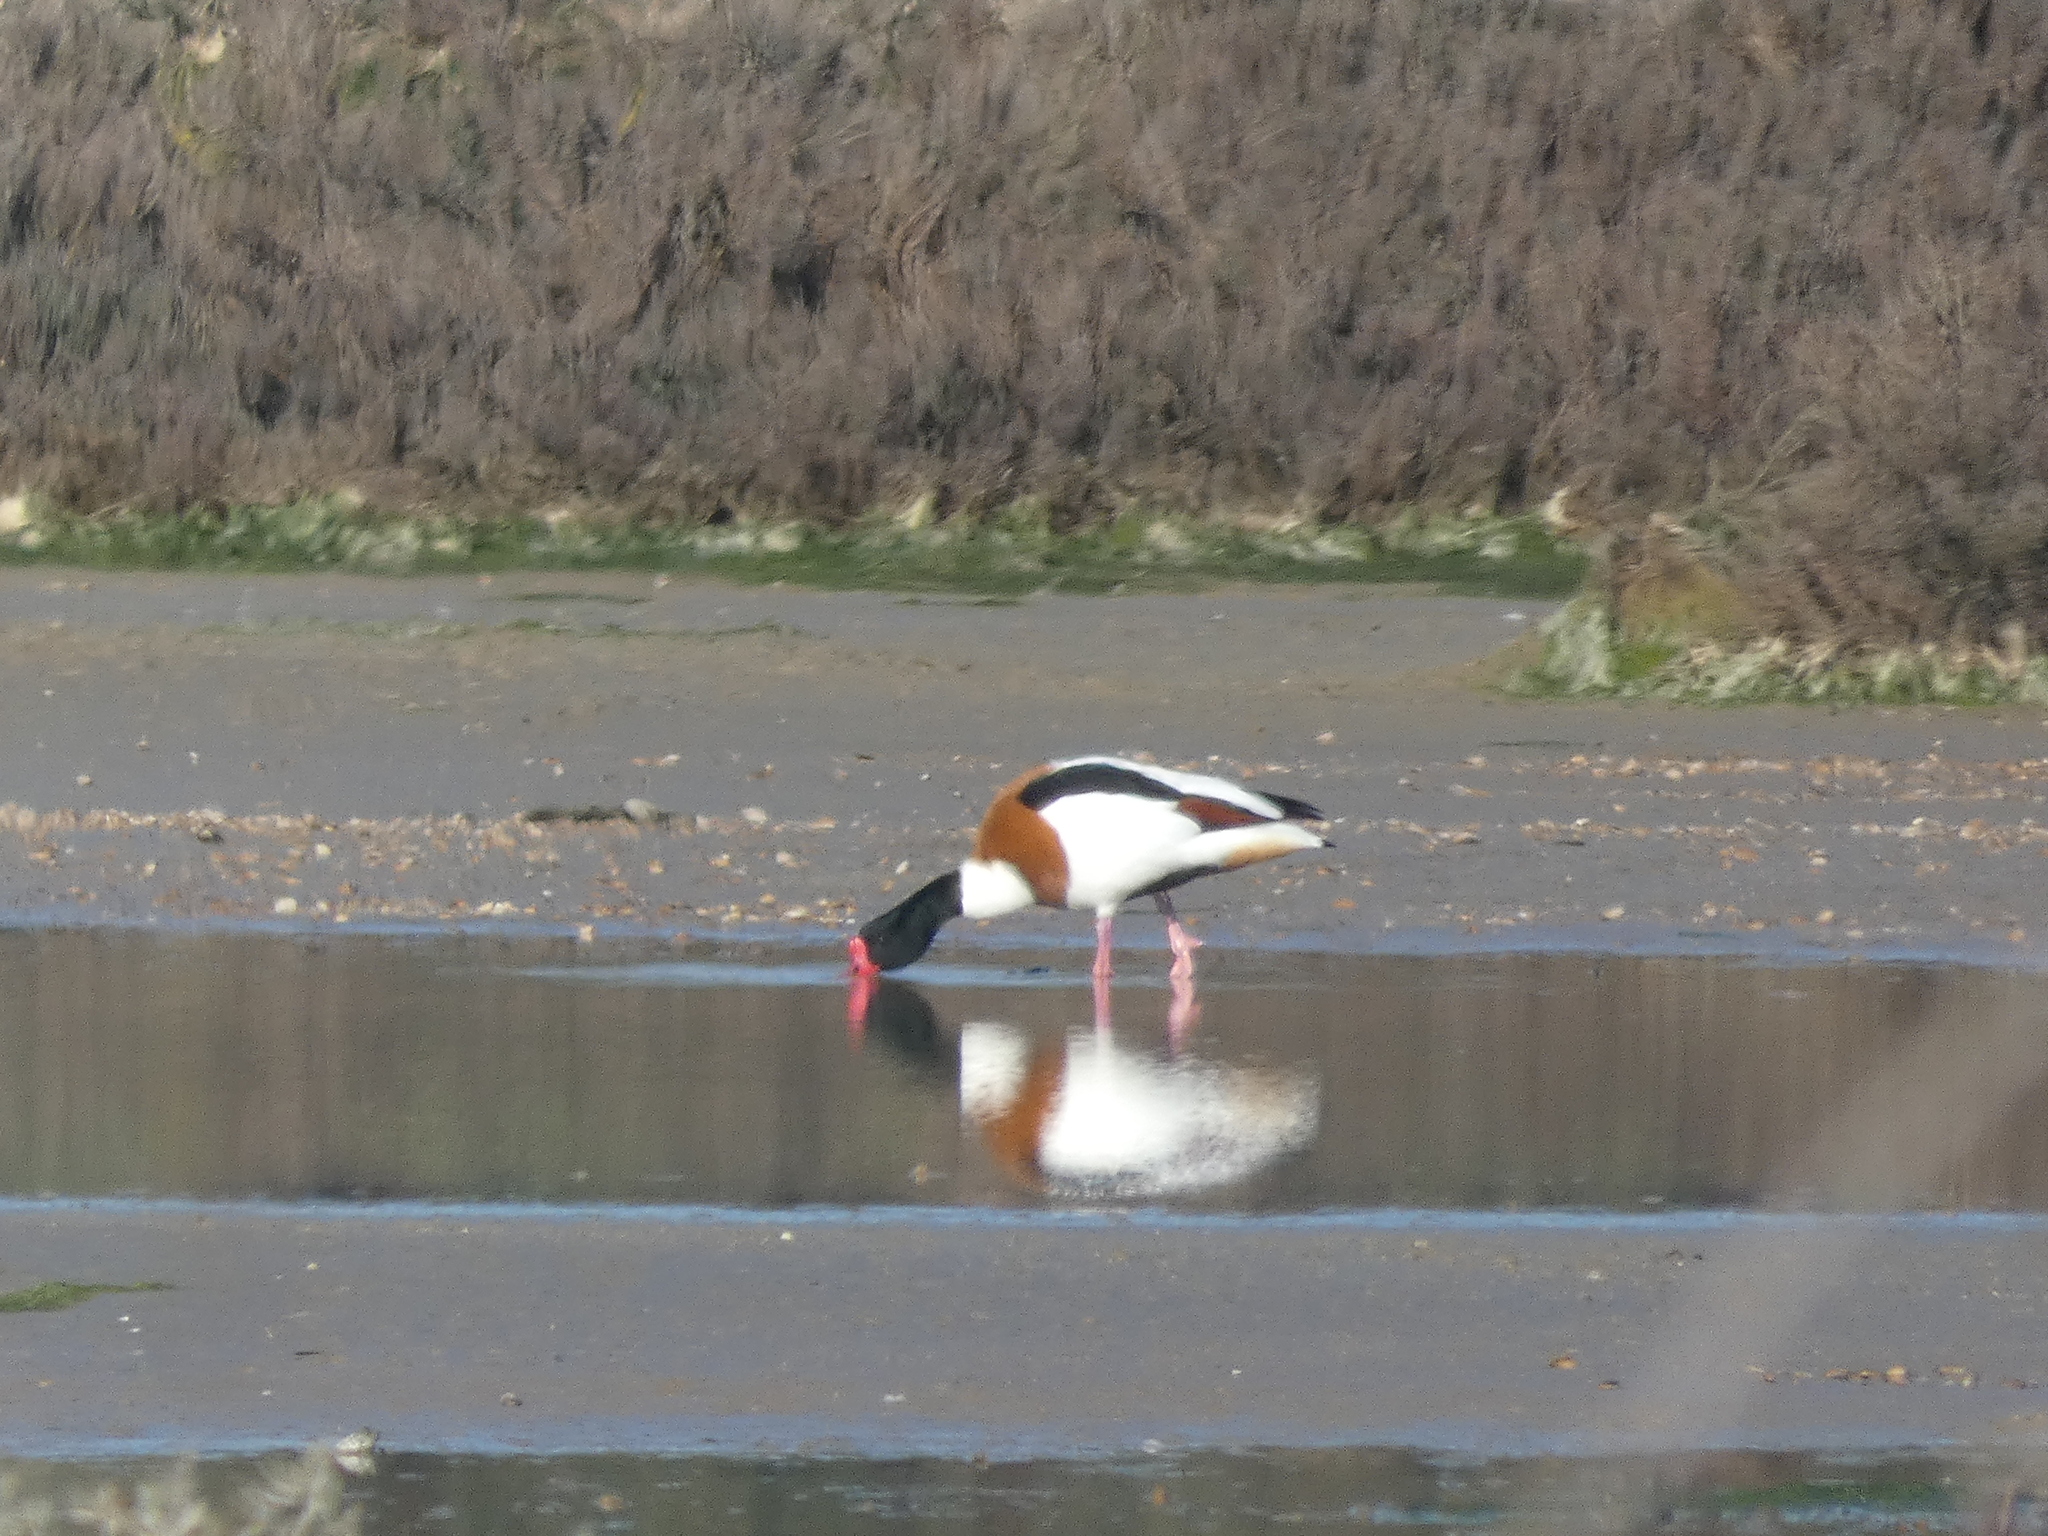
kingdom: Animalia
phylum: Chordata
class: Aves
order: Anseriformes
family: Anatidae
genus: Tadorna
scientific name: Tadorna tadorna
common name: Common shelduck
